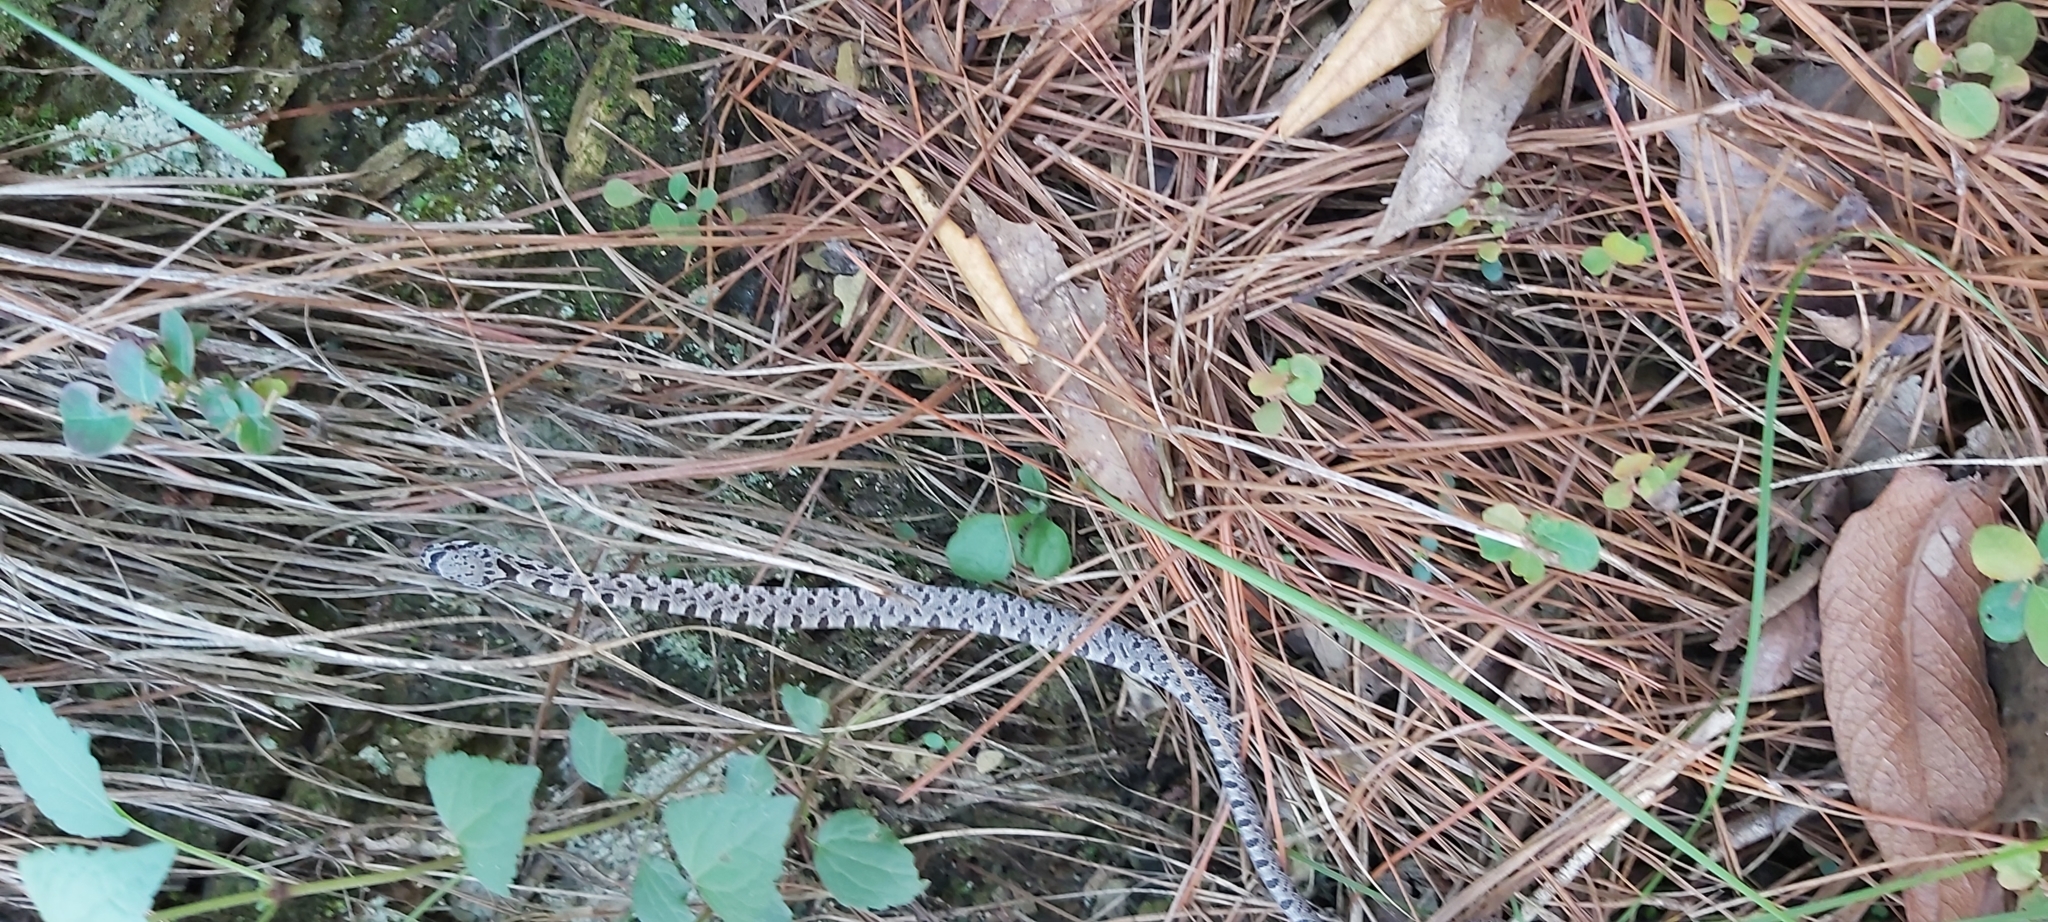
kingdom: Animalia
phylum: Chordata
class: Squamata
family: Colubridae
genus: Pantherophis
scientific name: Pantherophis bairdi
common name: Baird's rat snake
